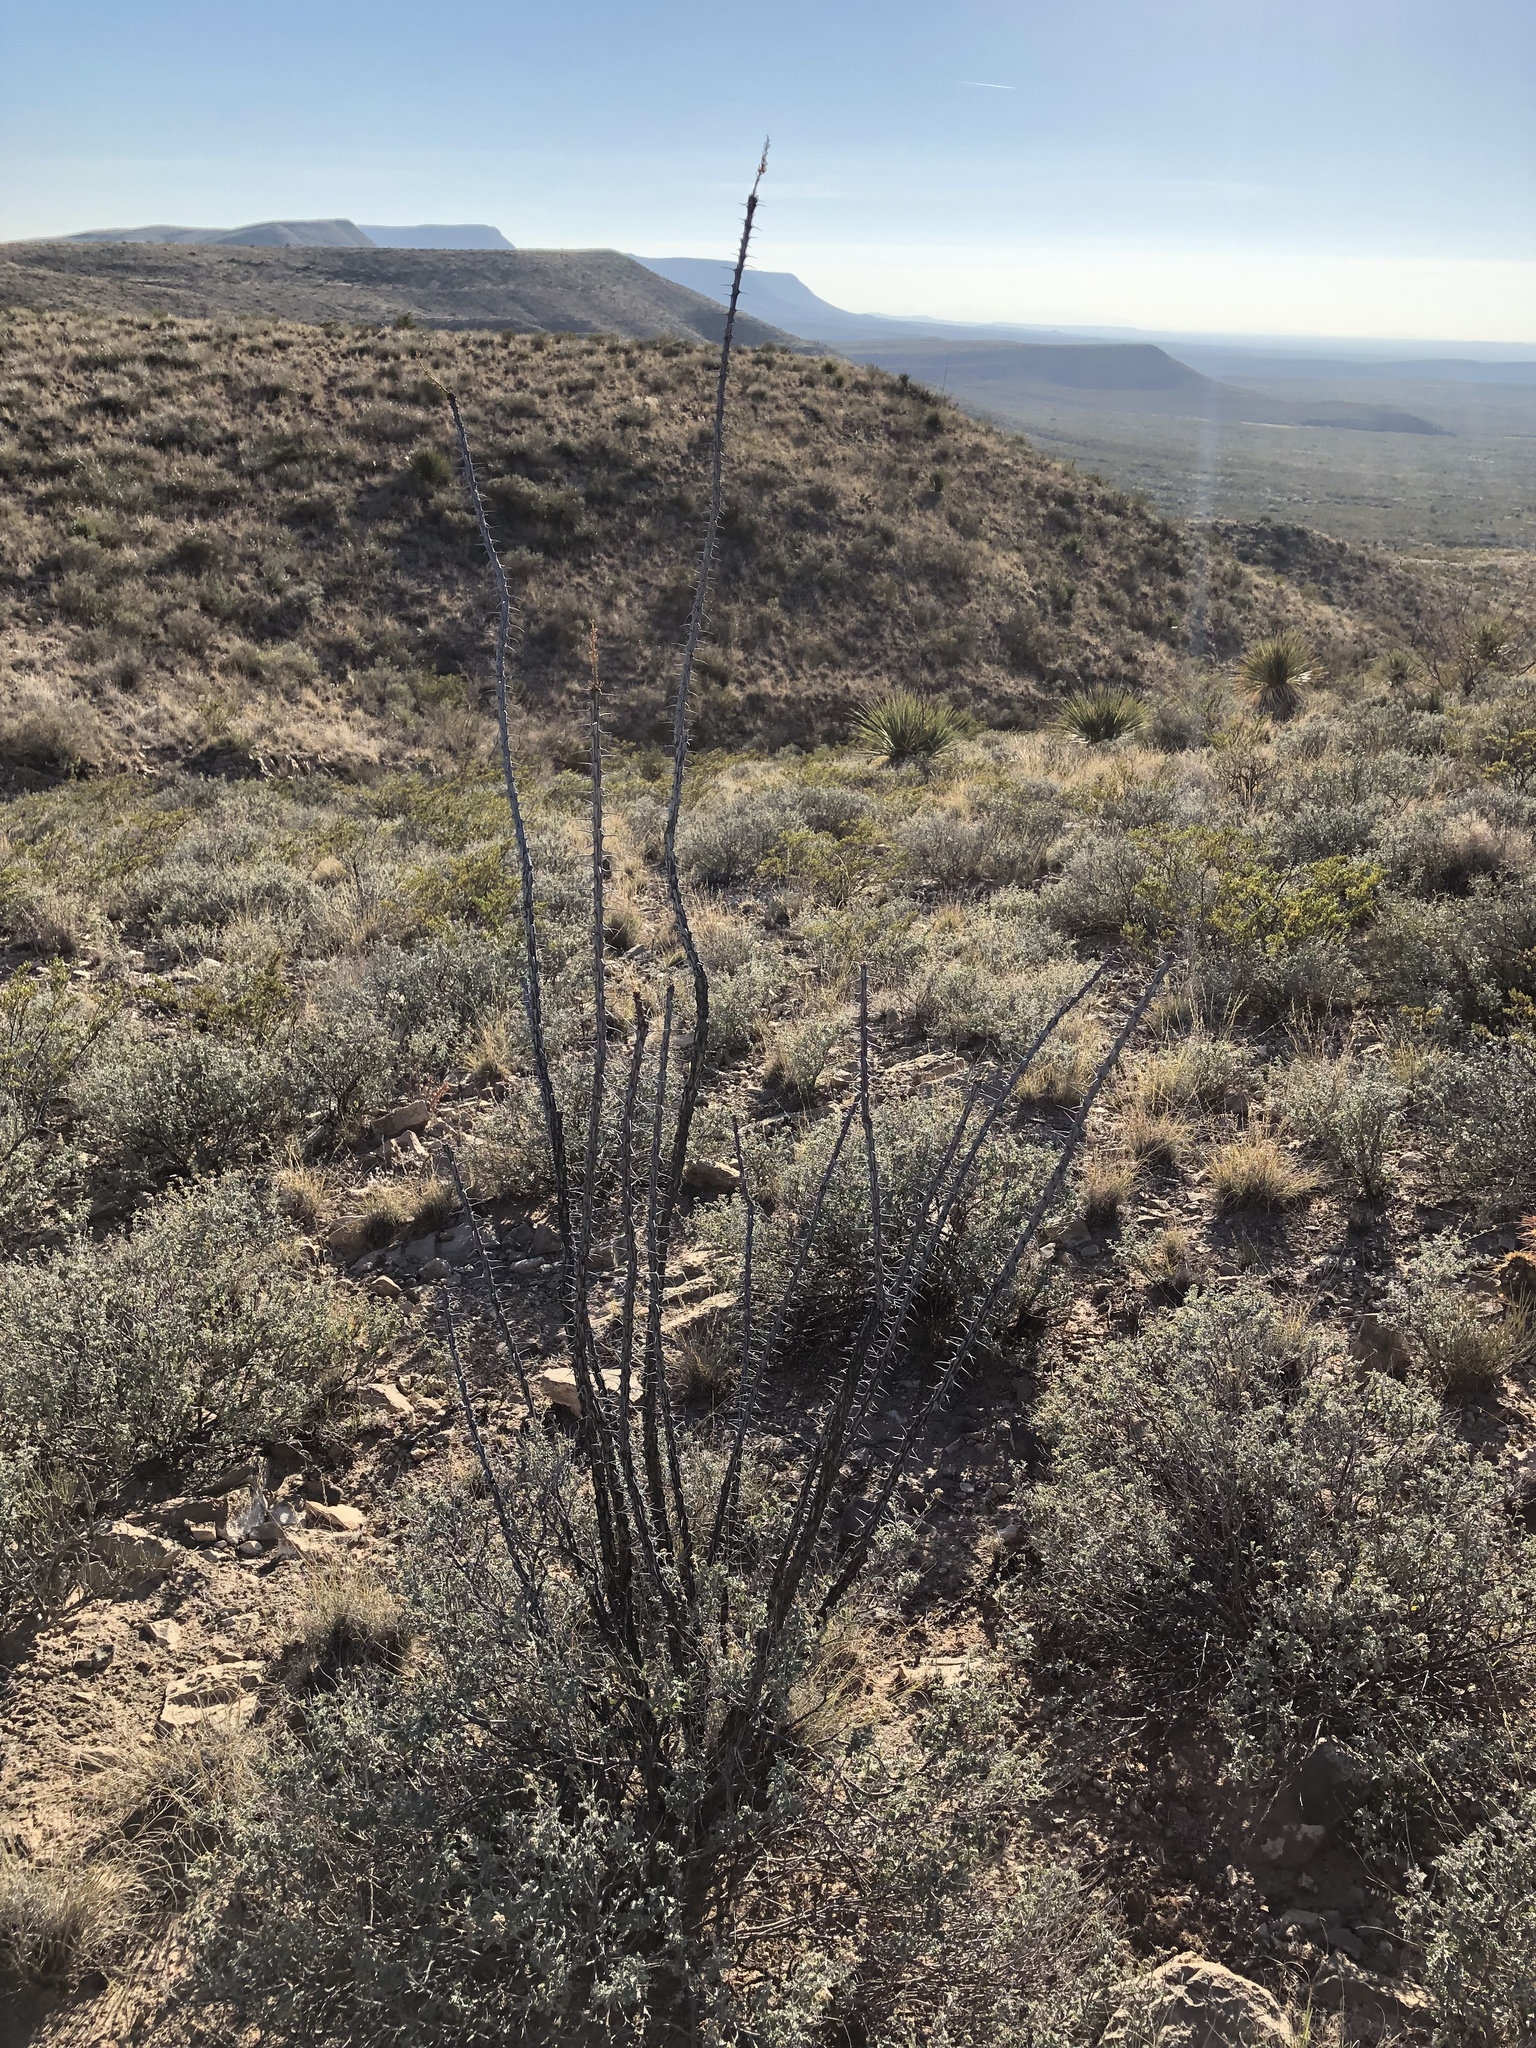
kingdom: Plantae
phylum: Tracheophyta
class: Magnoliopsida
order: Ericales
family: Fouquieriaceae
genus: Fouquieria
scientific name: Fouquieria splendens
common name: Vine-cactus
